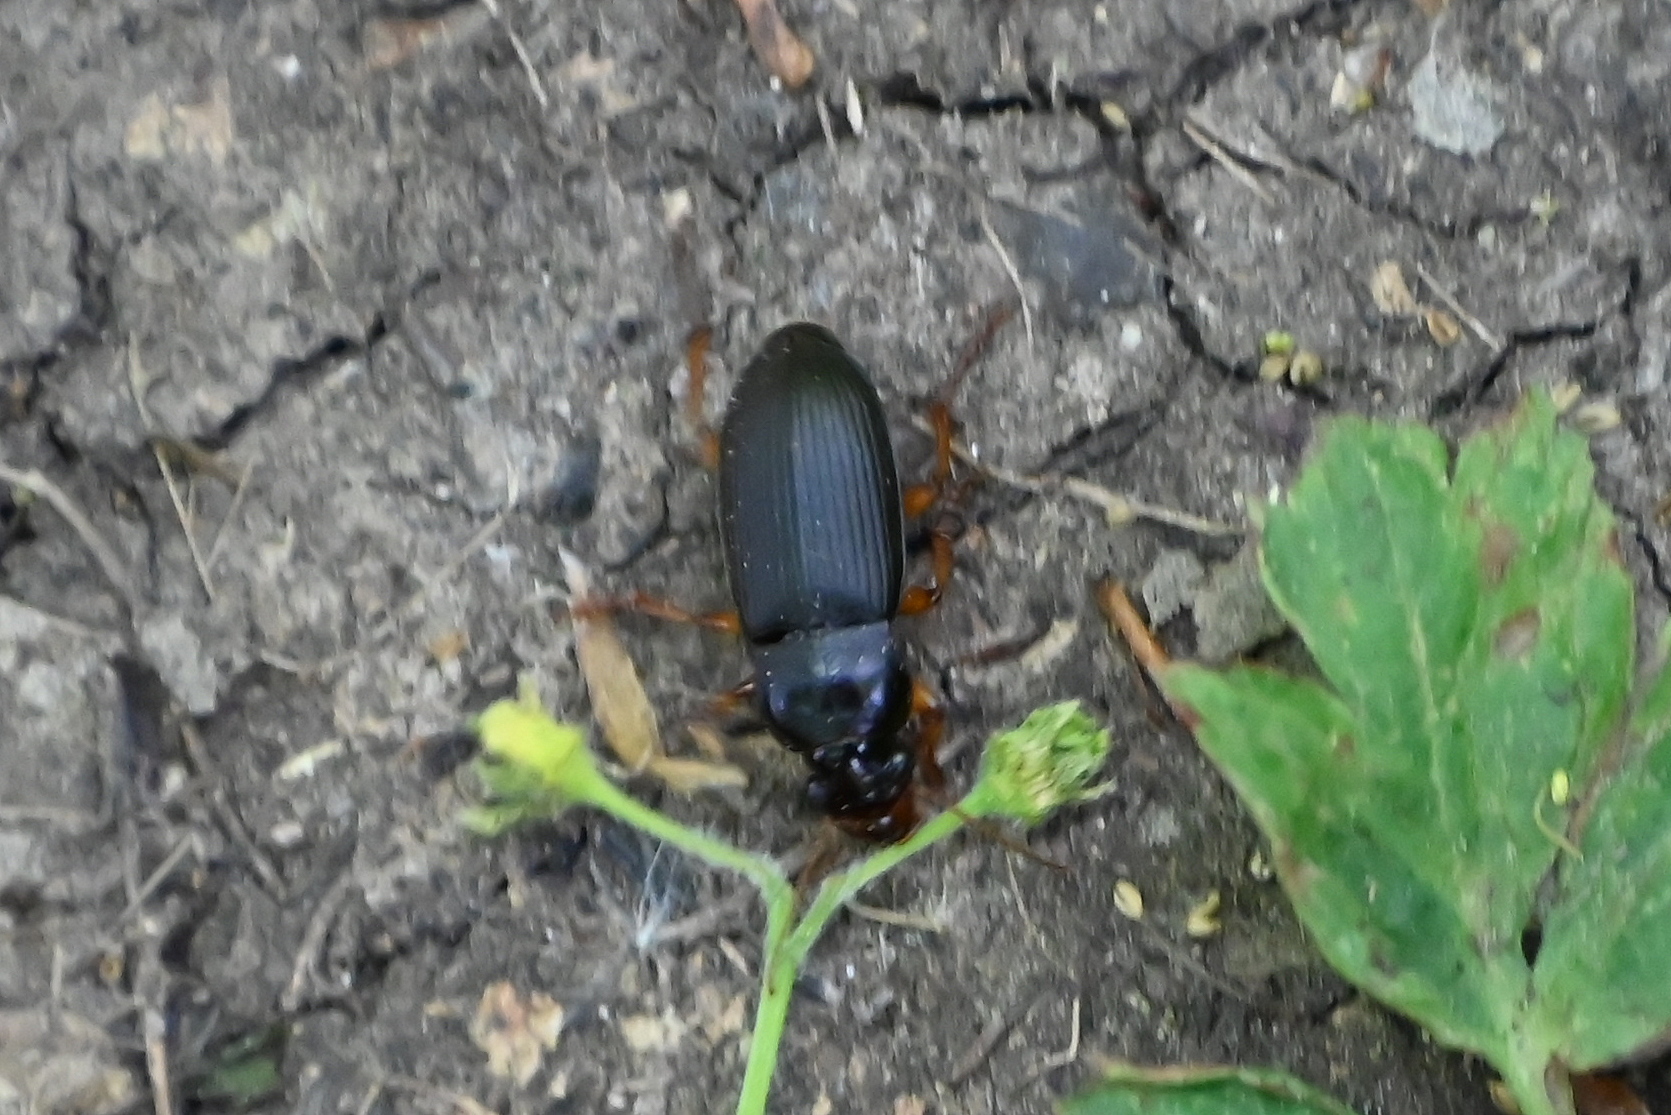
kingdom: Animalia
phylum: Arthropoda
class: Insecta
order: Coleoptera
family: Carabidae
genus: Harpalus
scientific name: Harpalus rufipes
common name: Strawberry harp ground beetle
